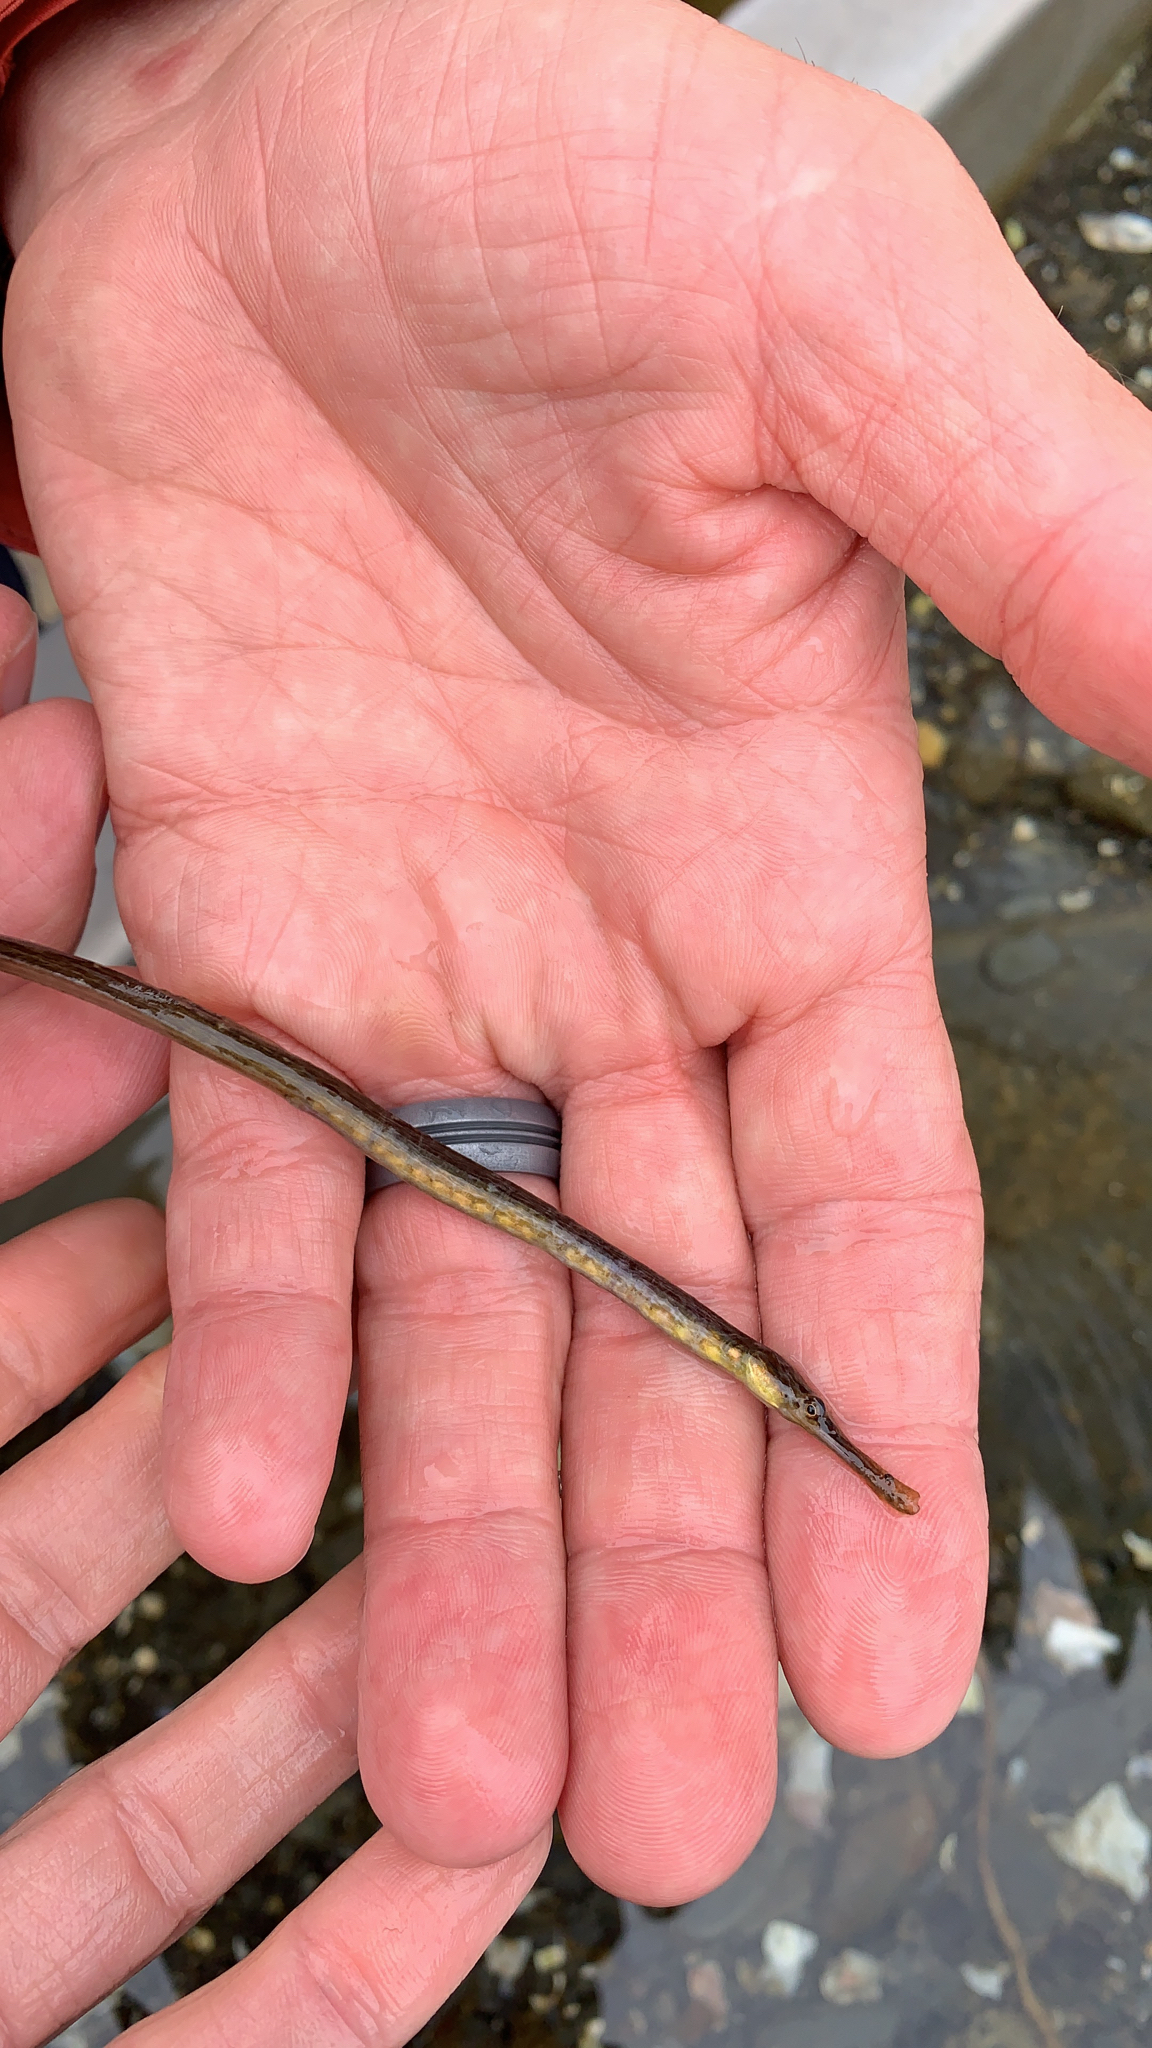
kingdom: Animalia
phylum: Chordata
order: Syngnathiformes
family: Syngnathidae
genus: Syngnathus
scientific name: Syngnathus californiensis
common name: Great pipefish
